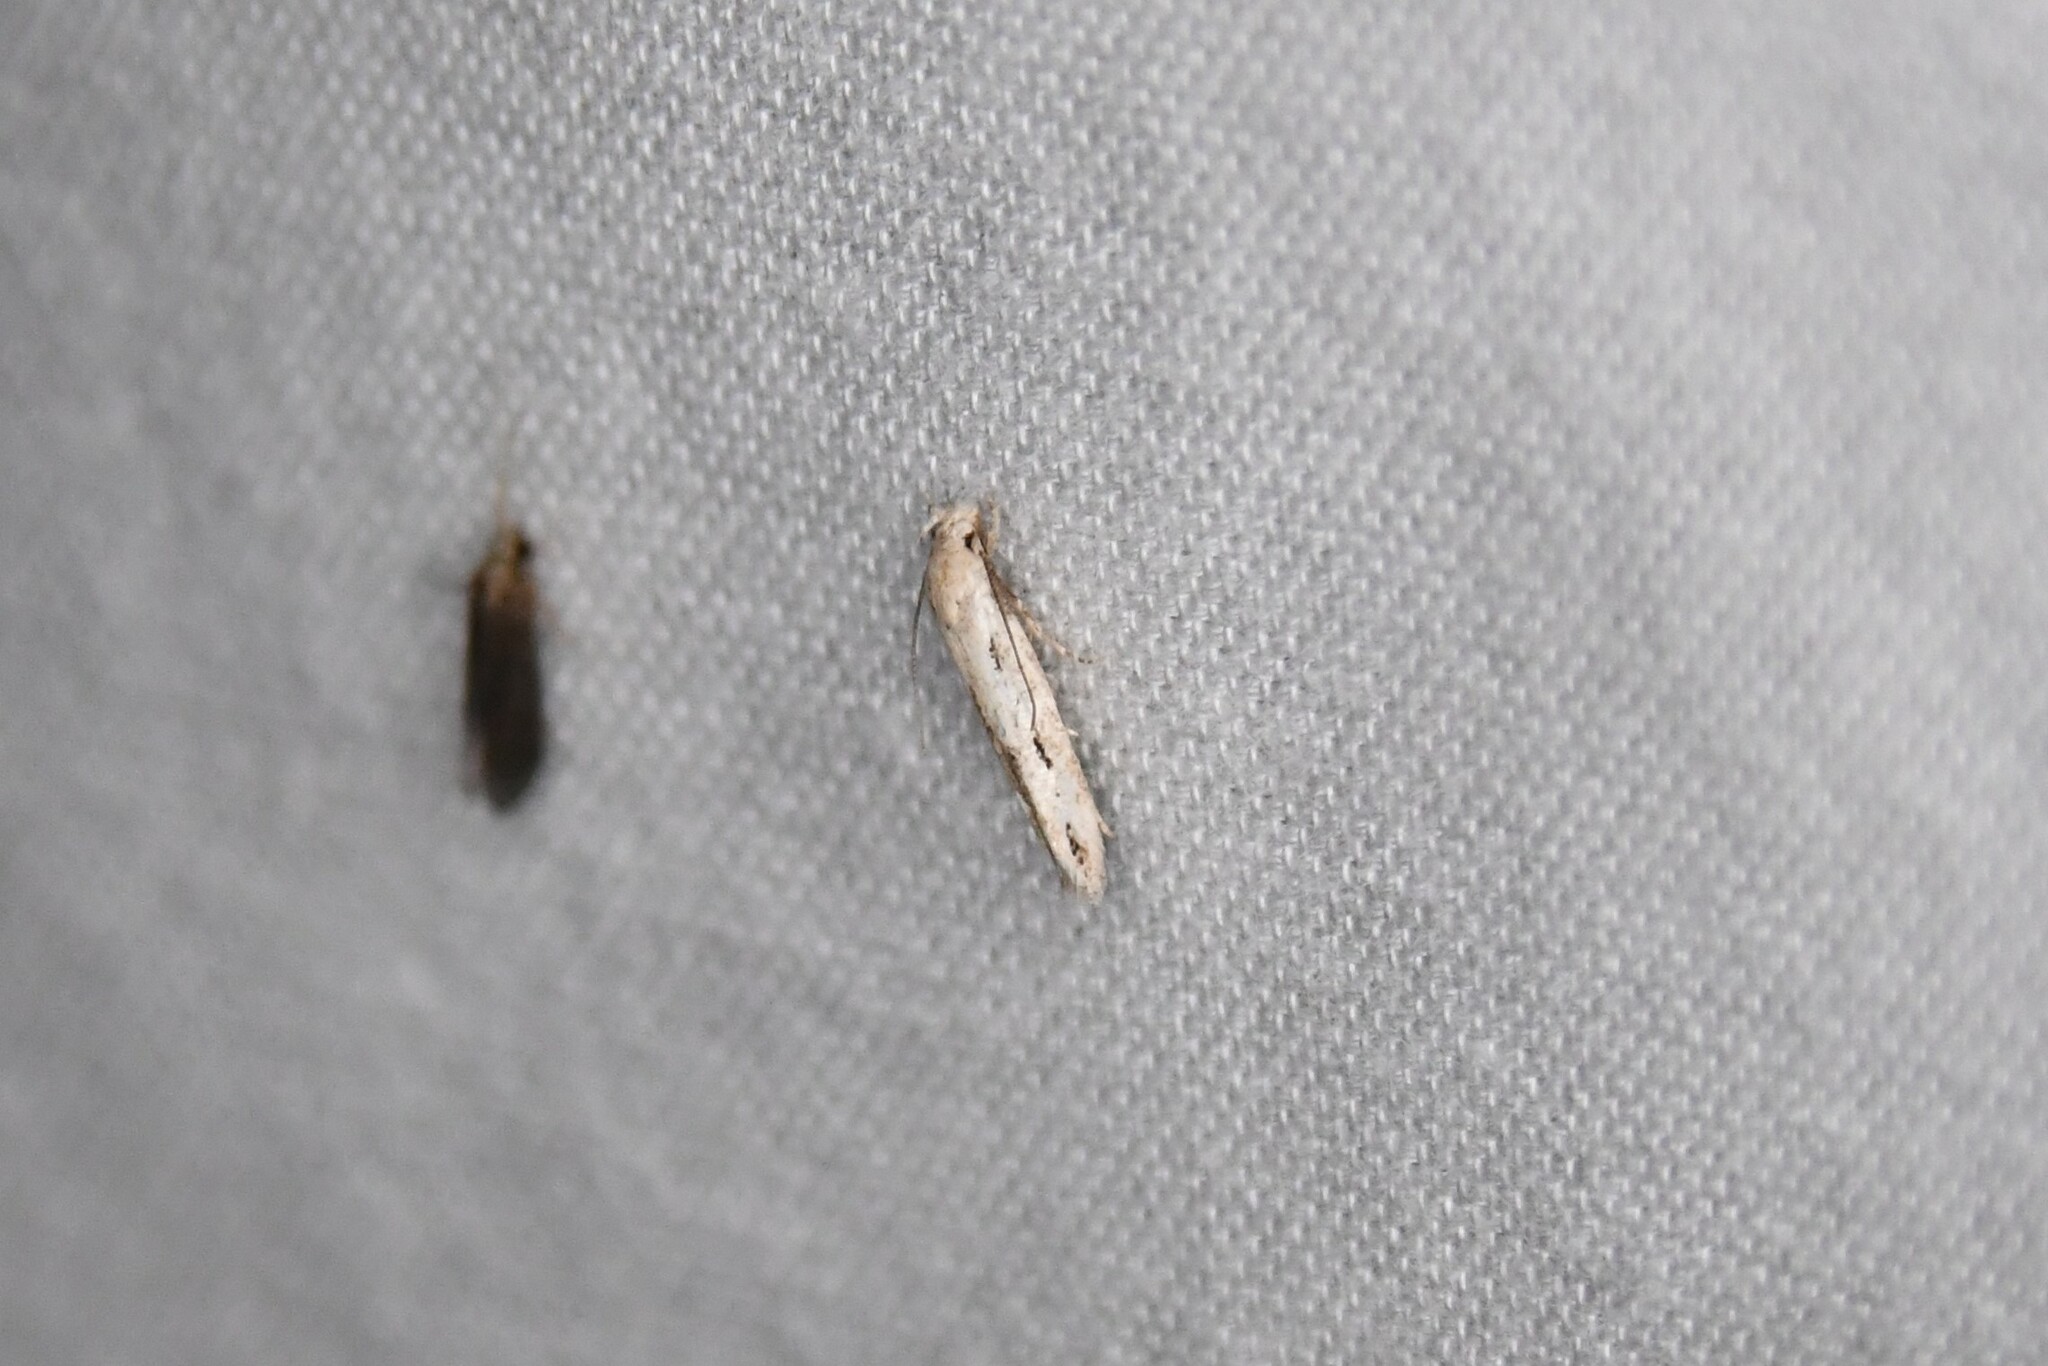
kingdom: Animalia
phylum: Arthropoda
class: Insecta
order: Lepidoptera
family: Momphidae
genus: Mompha
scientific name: Mompha brevivittella
